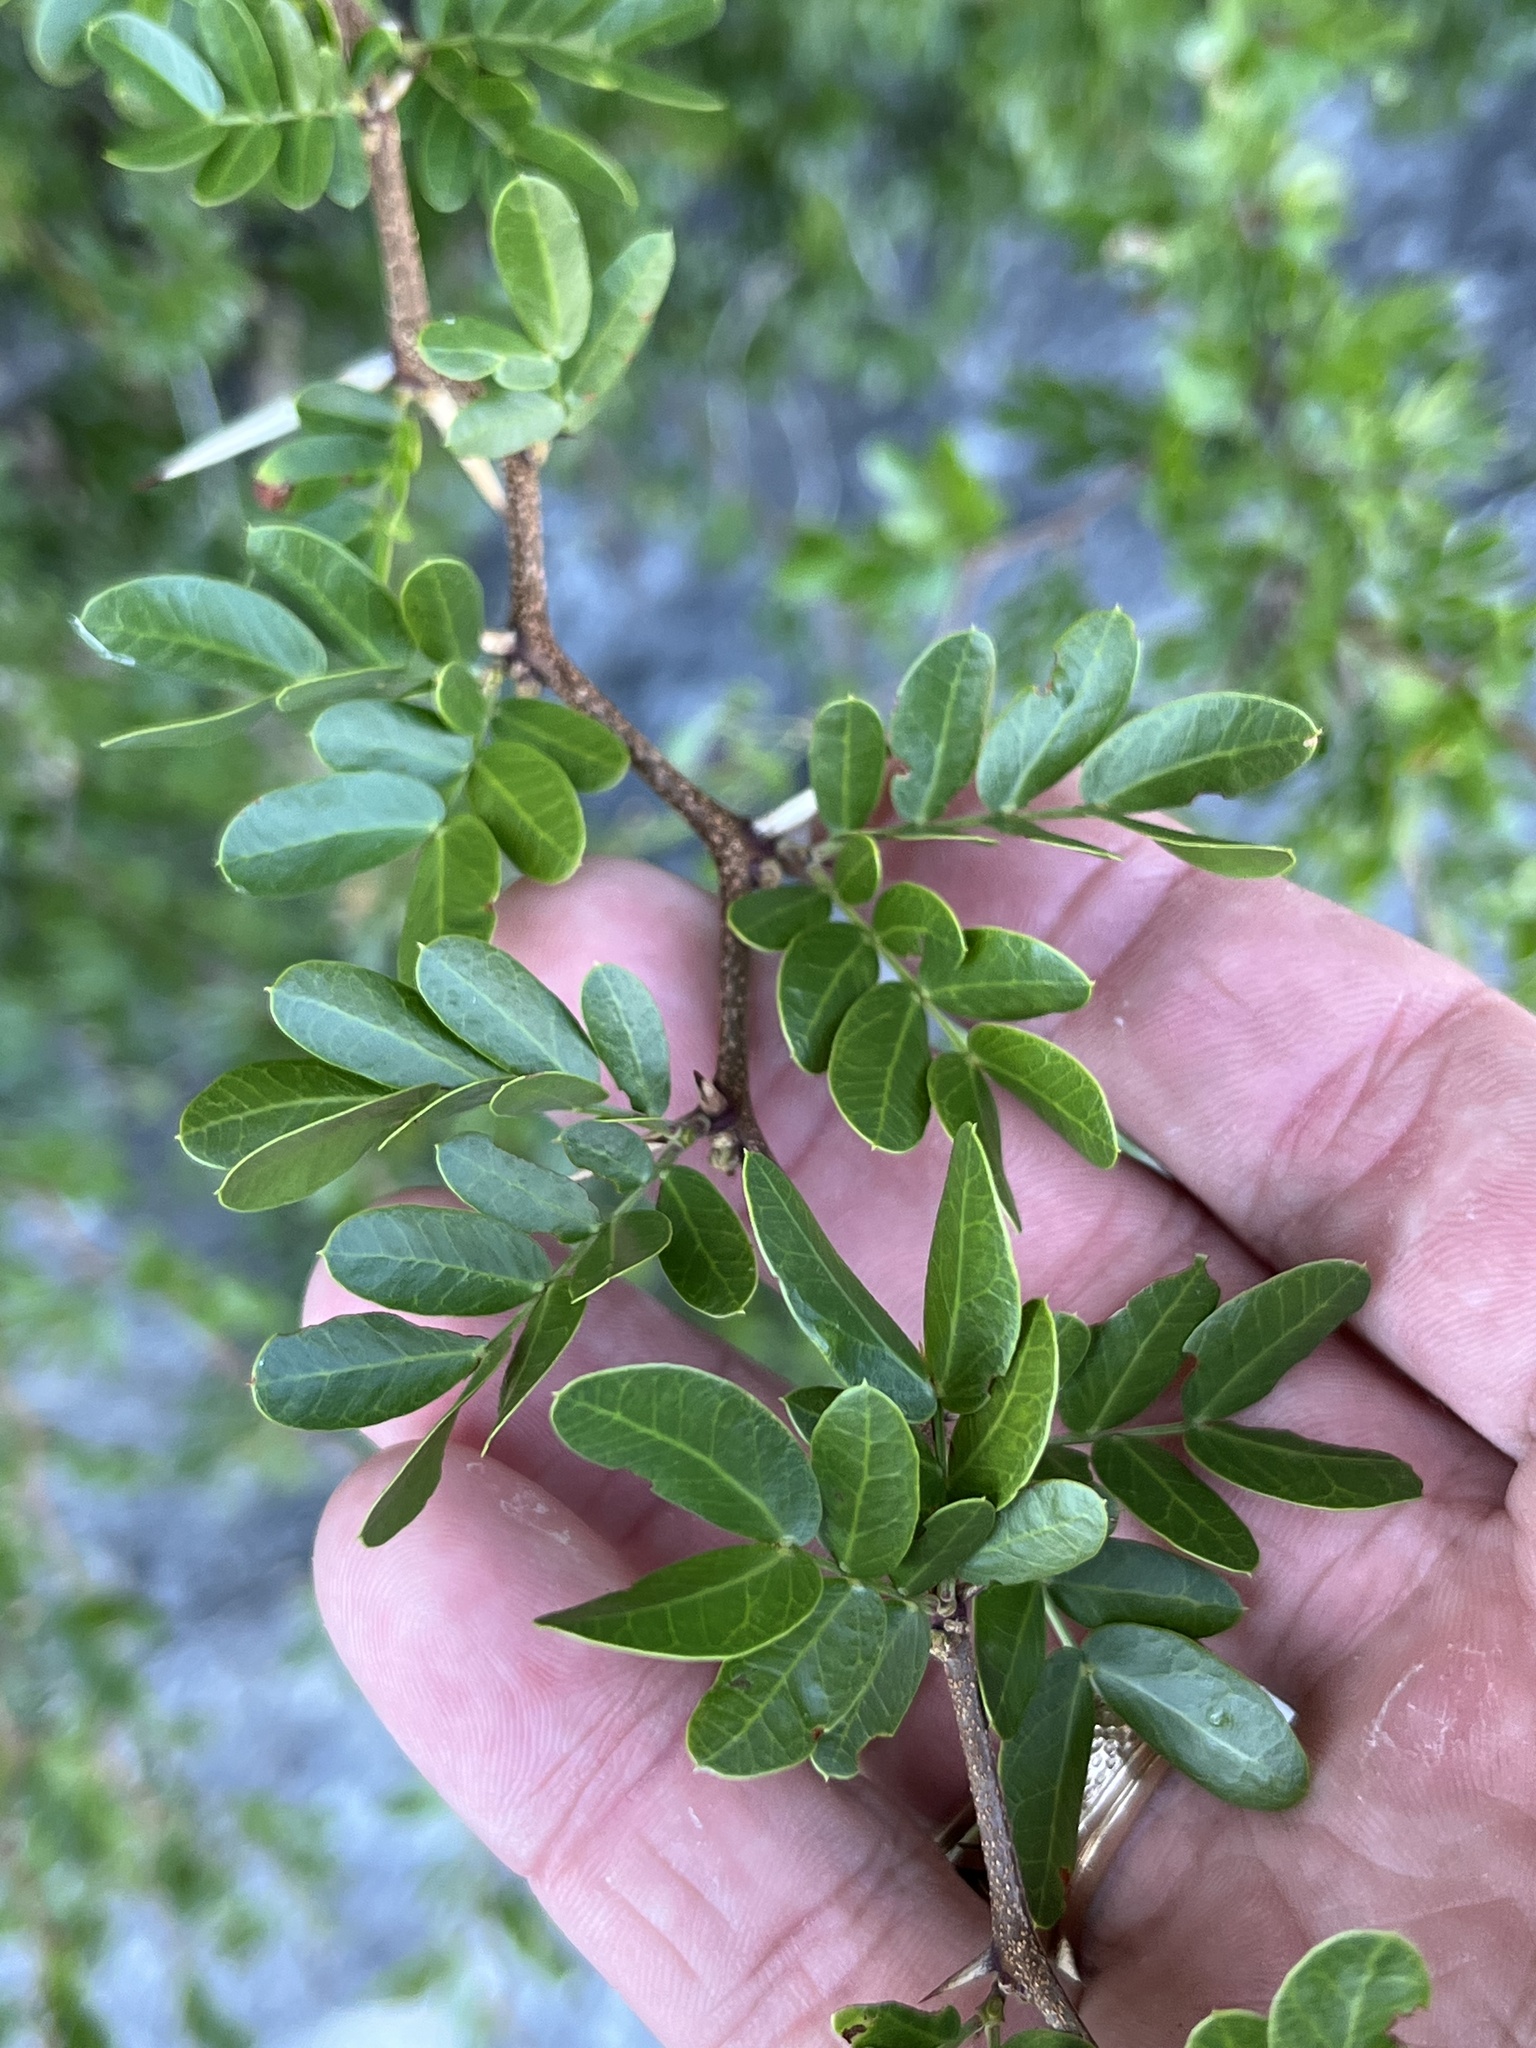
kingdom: Plantae
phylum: Tracheophyta
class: Magnoliopsida
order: Fabales
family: Fabaceae
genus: Vachellia
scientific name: Vachellia rigidula
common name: Blackbrush
